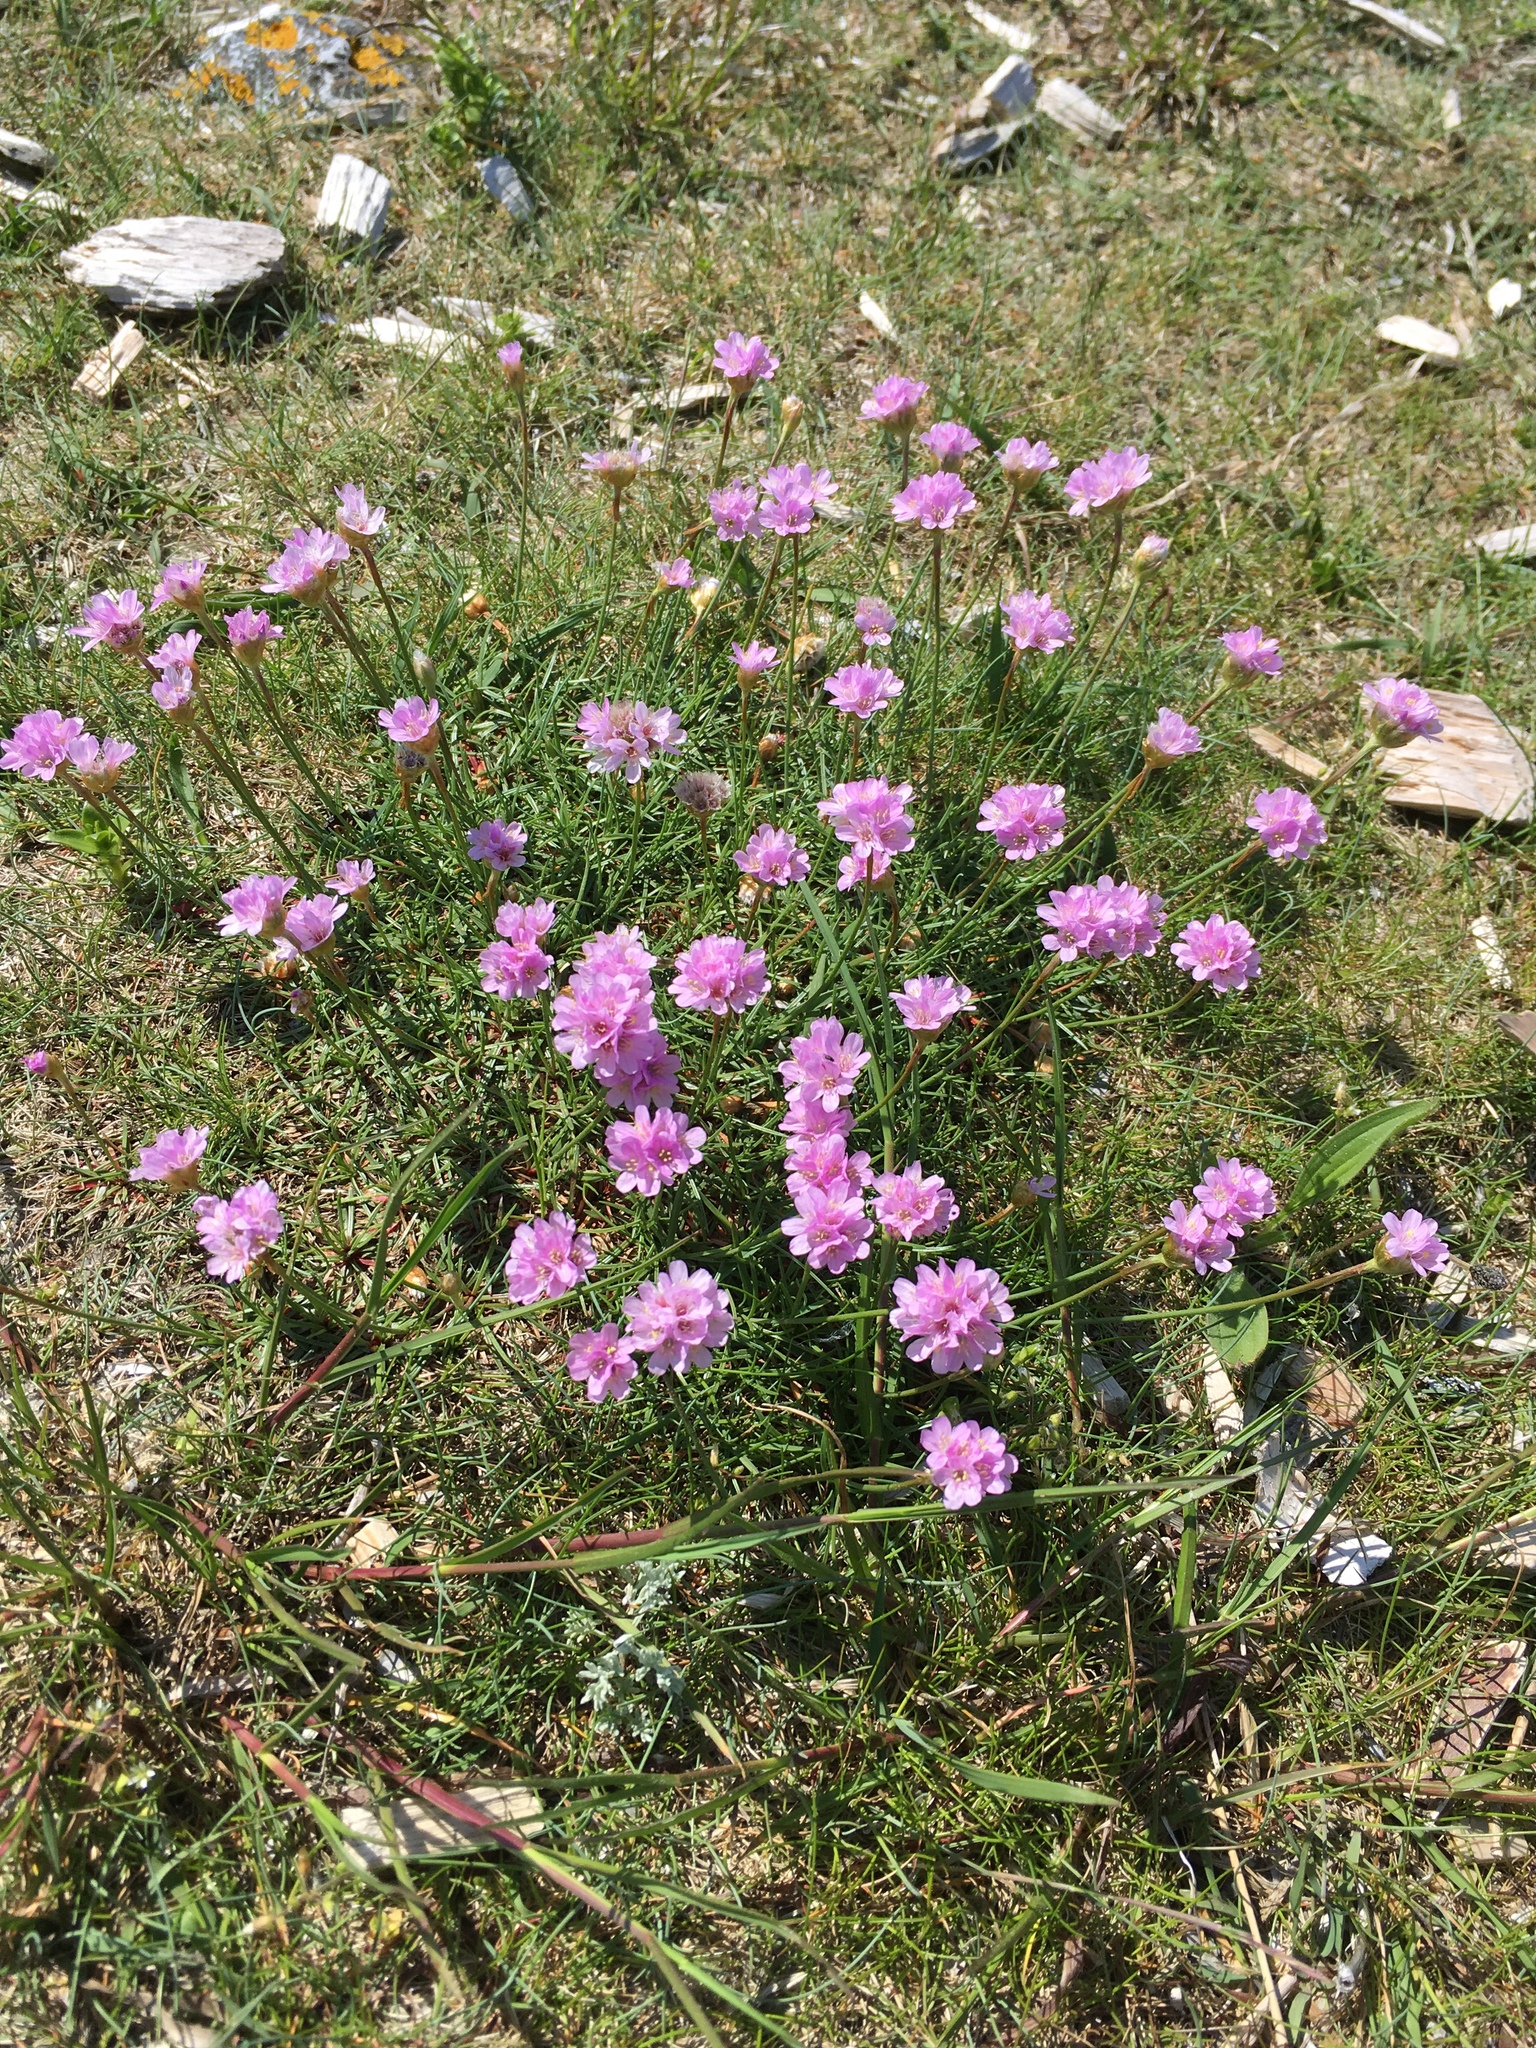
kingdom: Plantae
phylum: Tracheophyta
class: Magnoliopsida
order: Caryophyllales
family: Plumbaginaceae
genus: Armeria
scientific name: Armeria maritima
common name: Thrift
